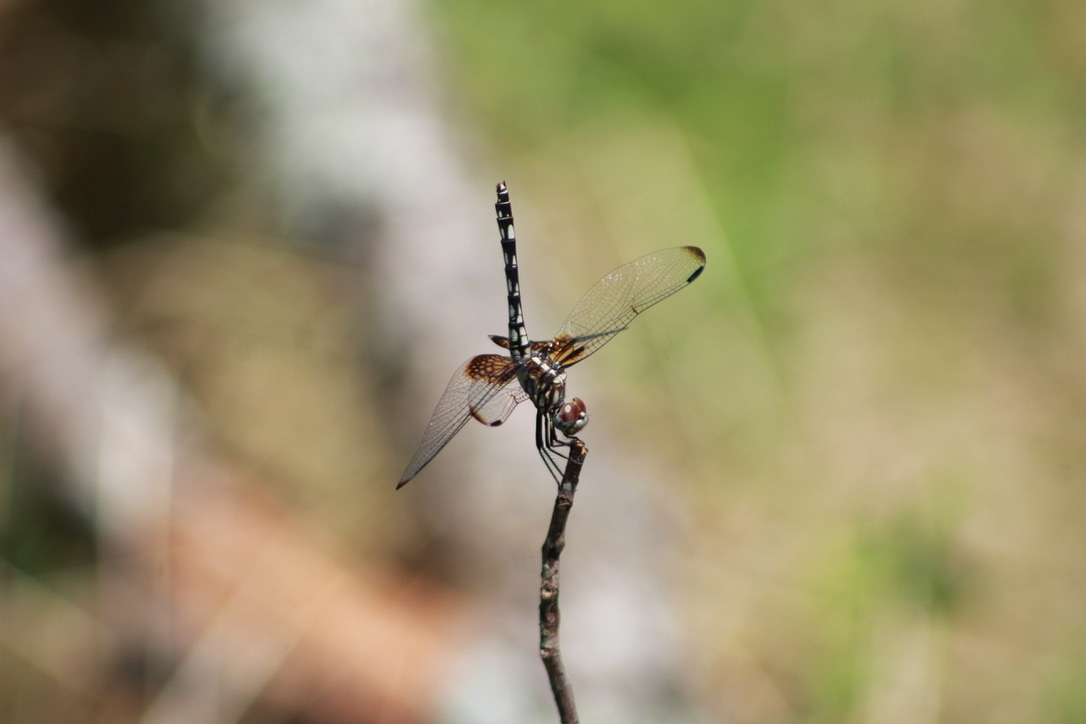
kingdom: Animalia
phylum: Arthropoda
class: Insecta
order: Odonata
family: Libellulidae
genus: Dythemis
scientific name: Dythemis fugax
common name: Checkered setwing
